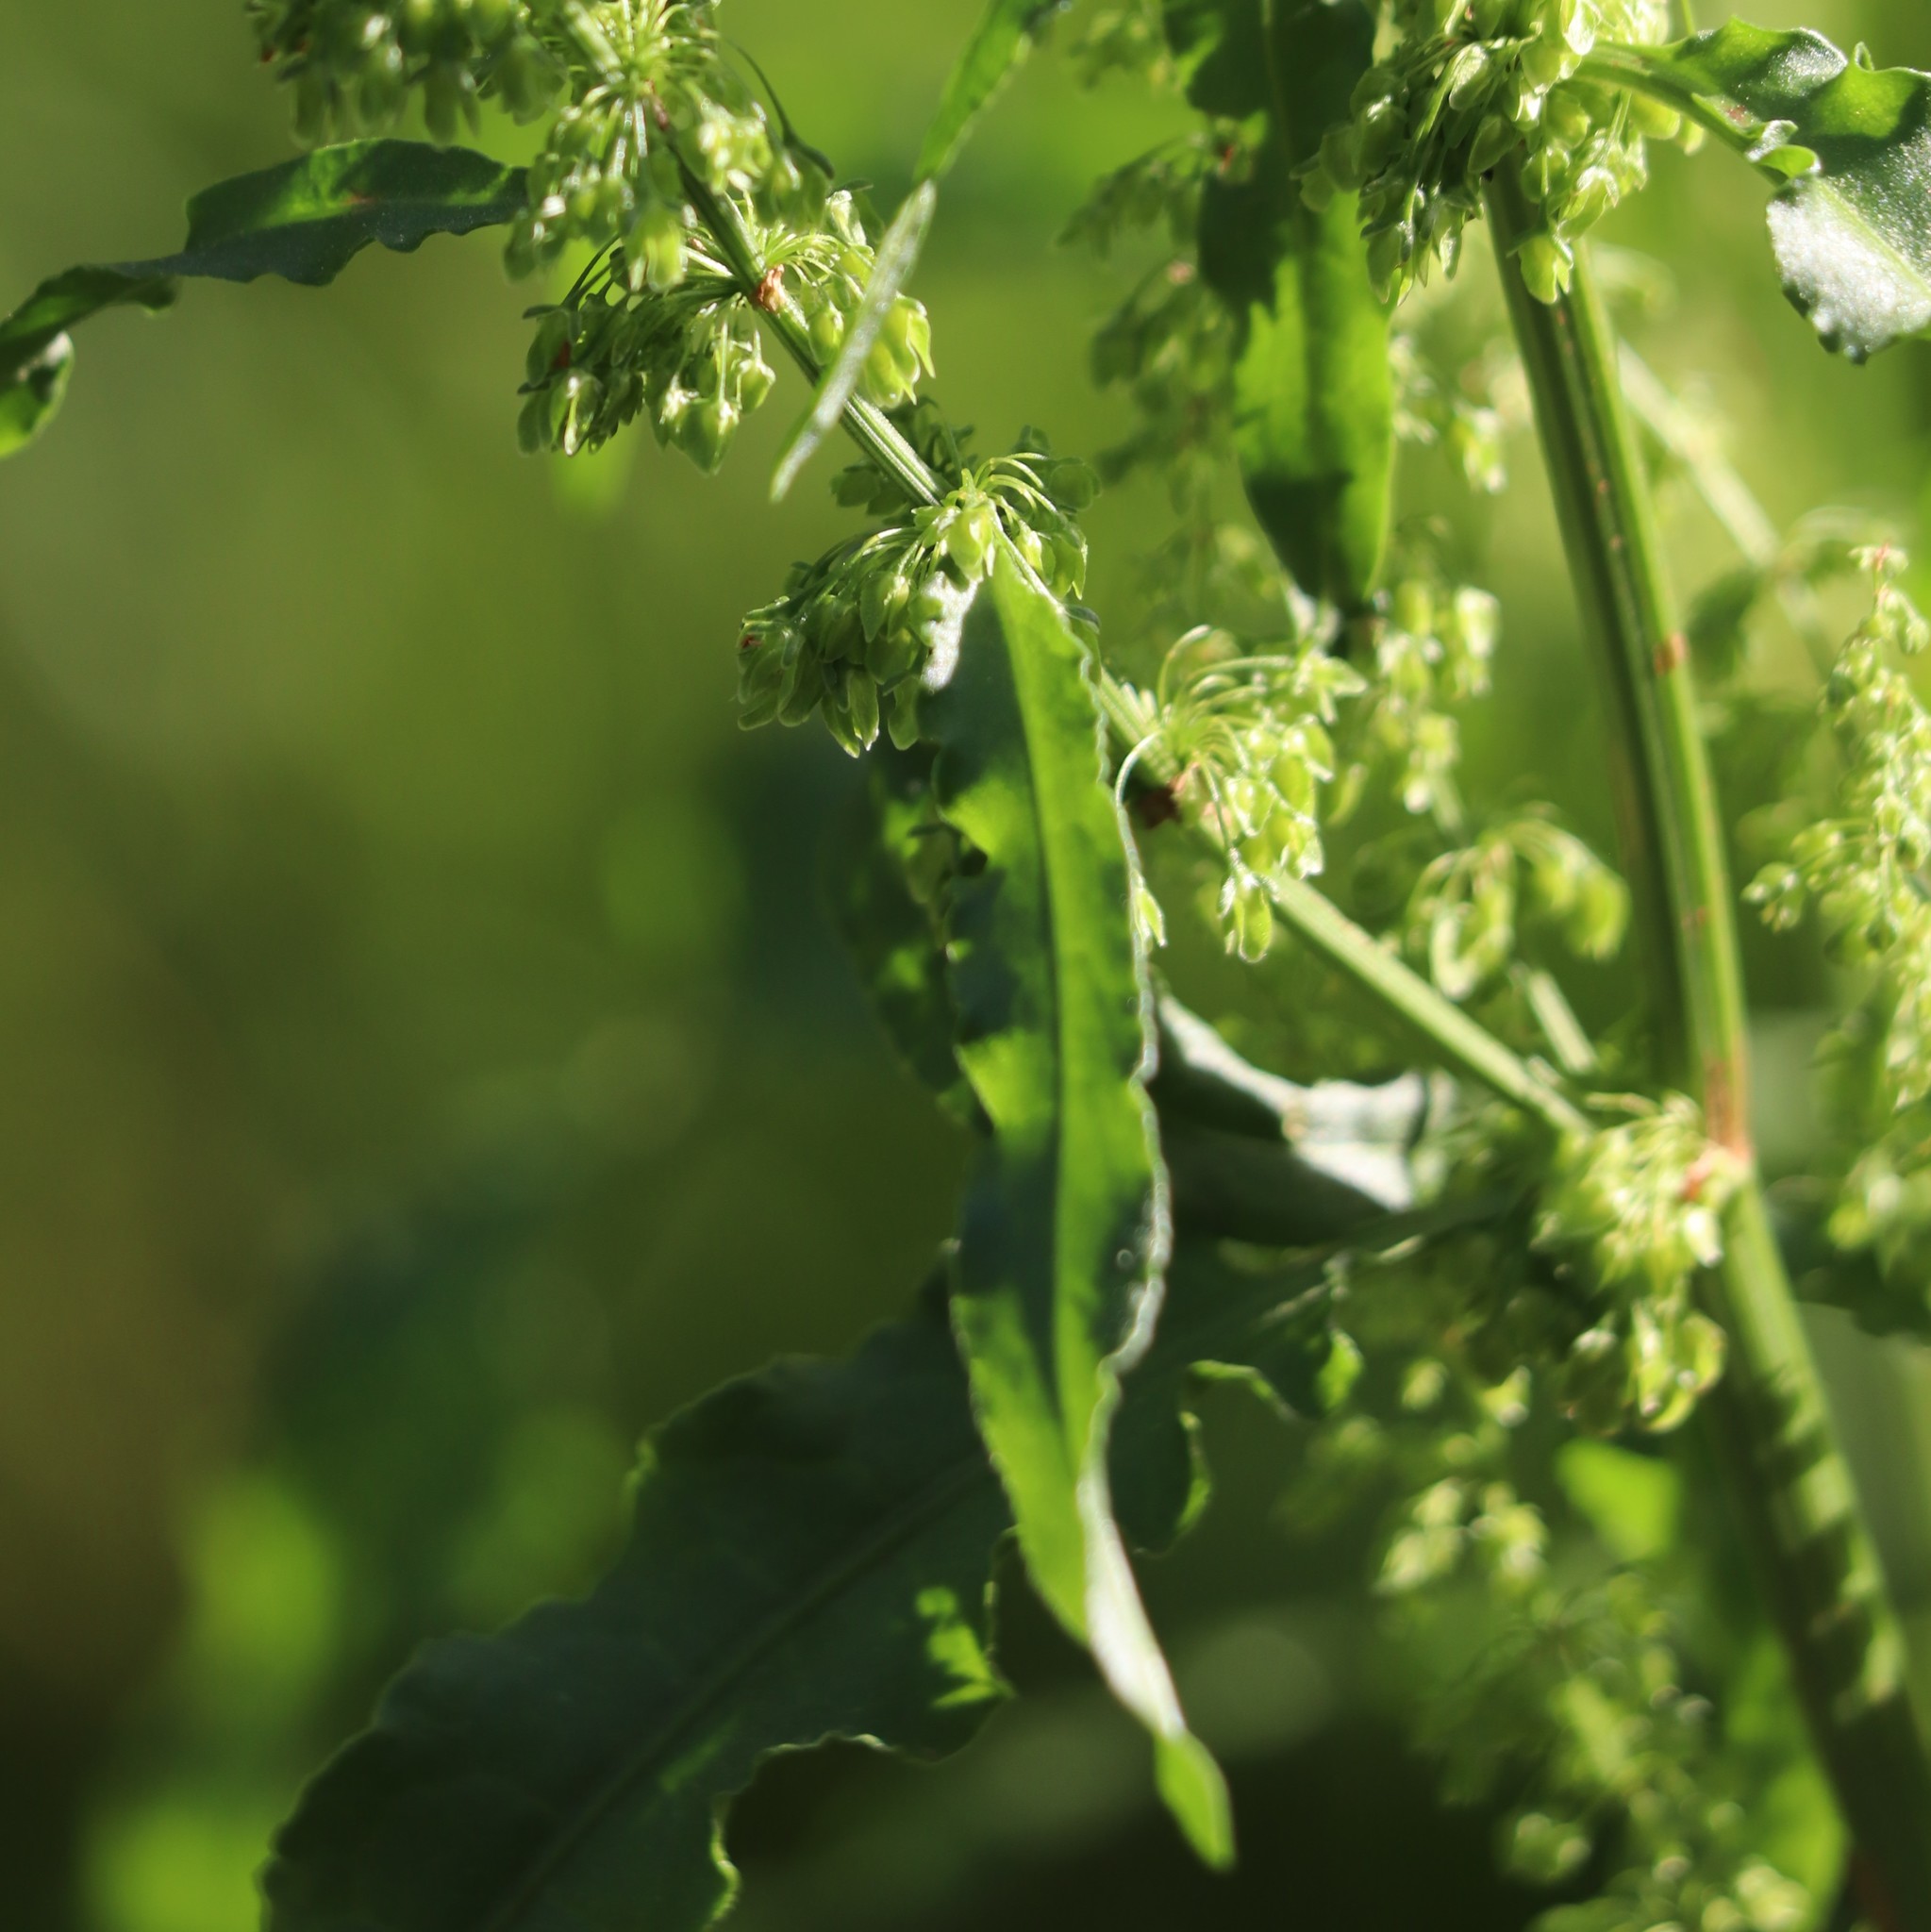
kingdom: Plantae
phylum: Tracheophyta
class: Magnoliopsida
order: Caryophyllales
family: Polygonaceae
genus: Rumex
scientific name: Rumex crispus
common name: Curled dock
